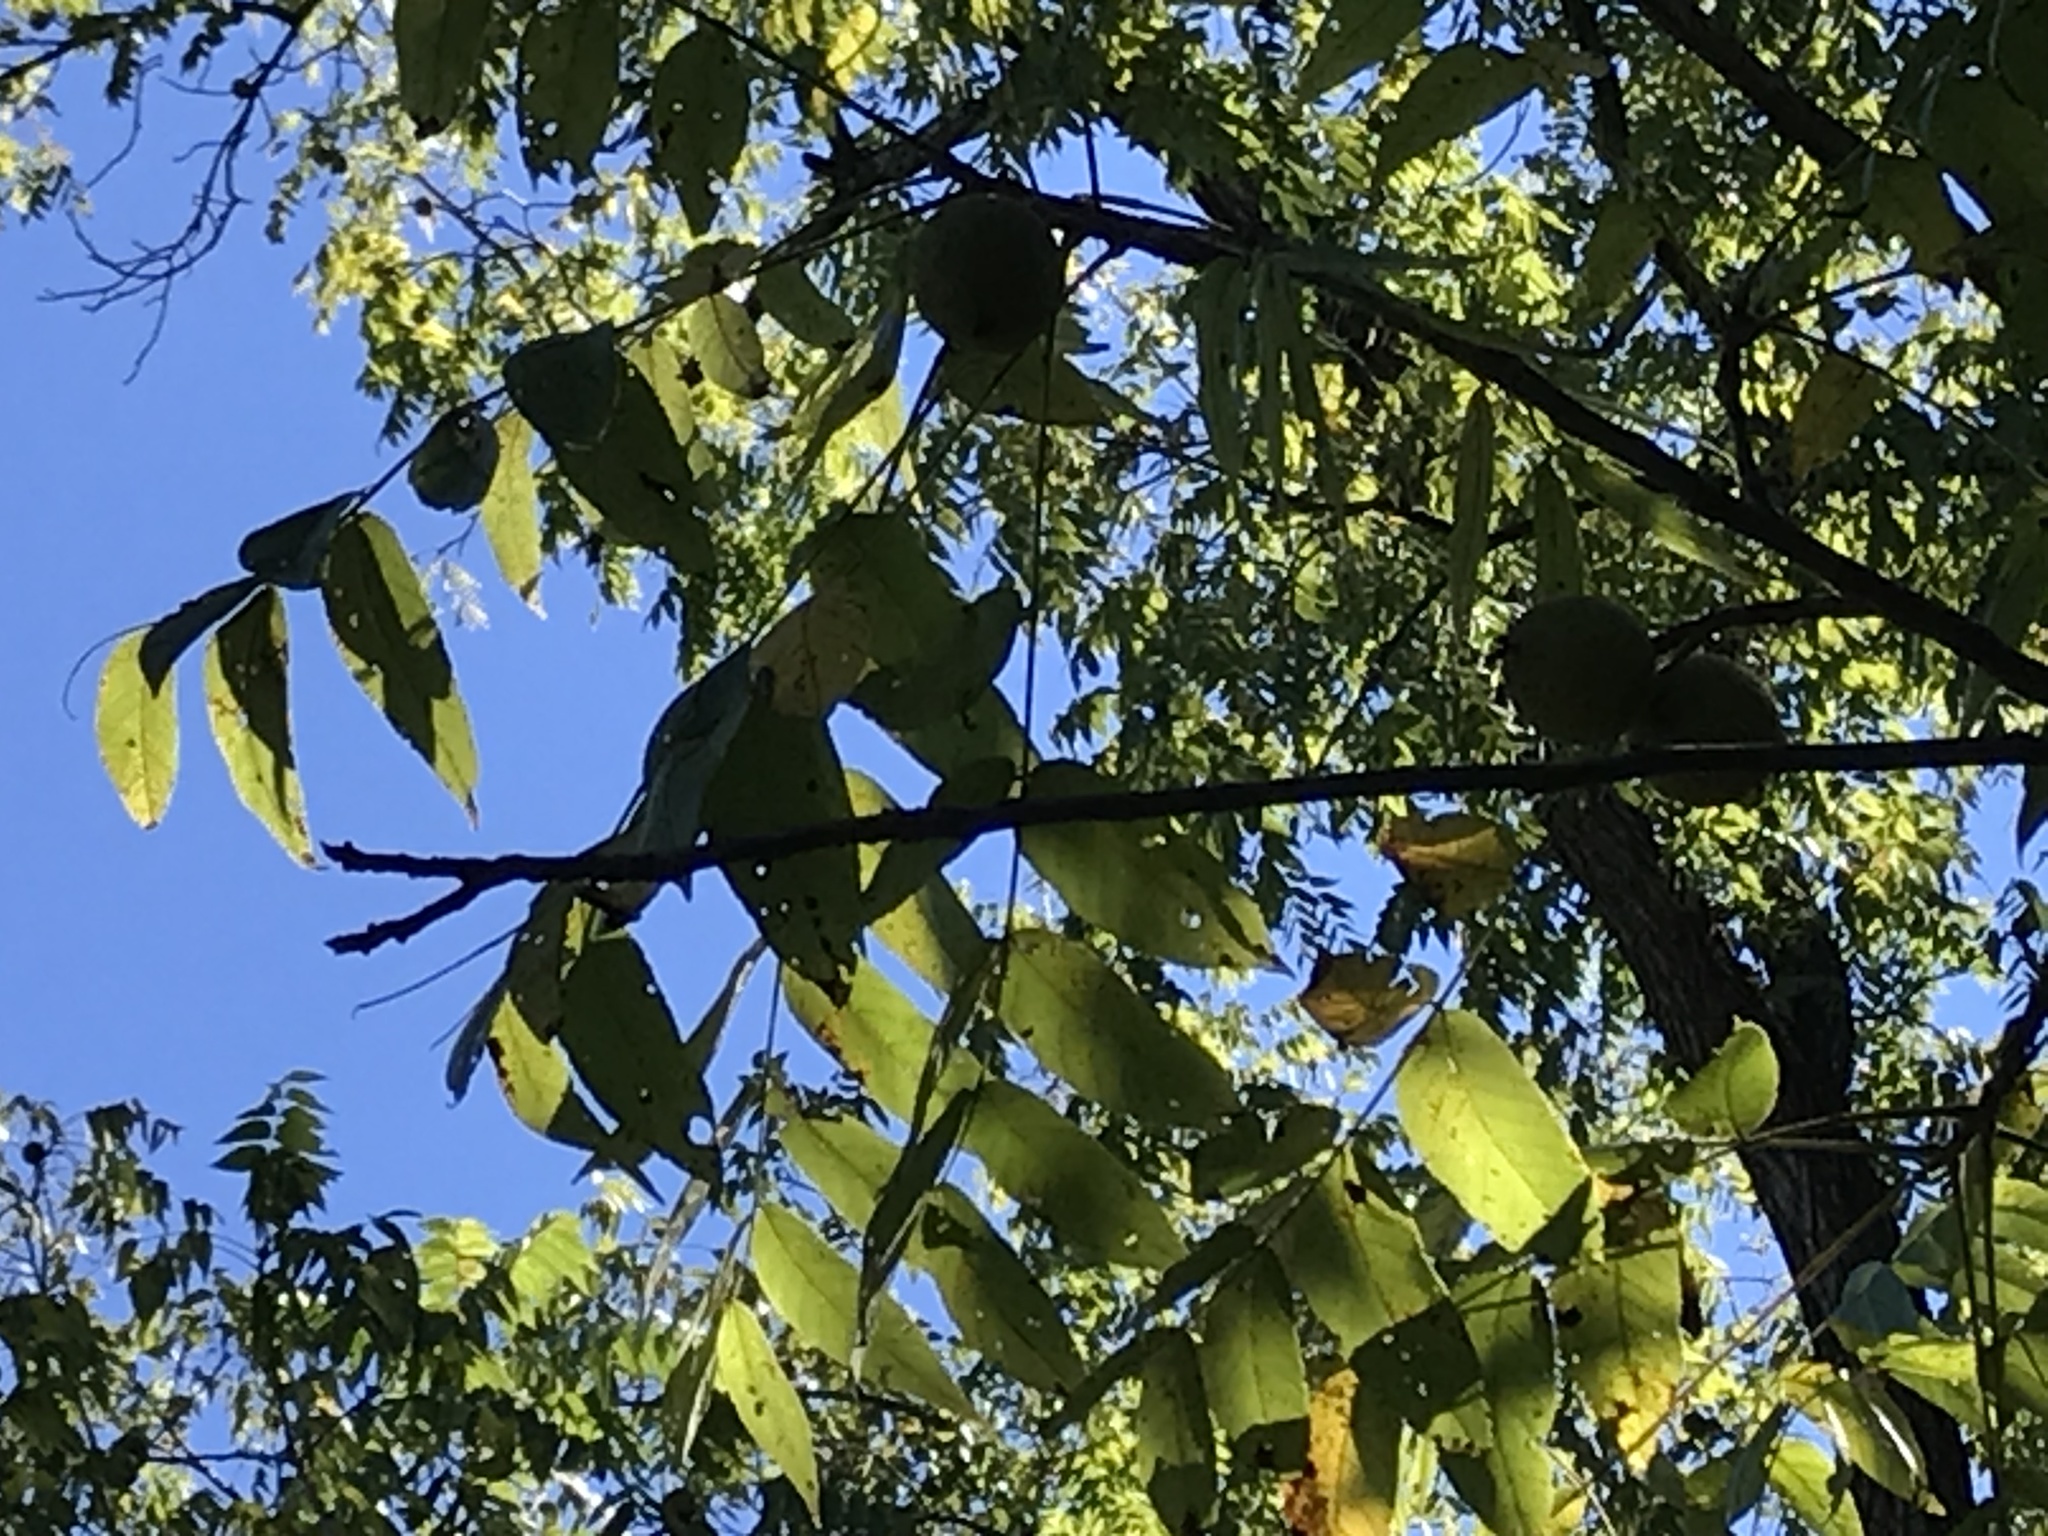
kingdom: Plantae
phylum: Tracheophyta
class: Magnoliopsida
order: Fagales
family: Juglandaceae
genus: Juglans
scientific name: Juglans nigra
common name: Black walnut
